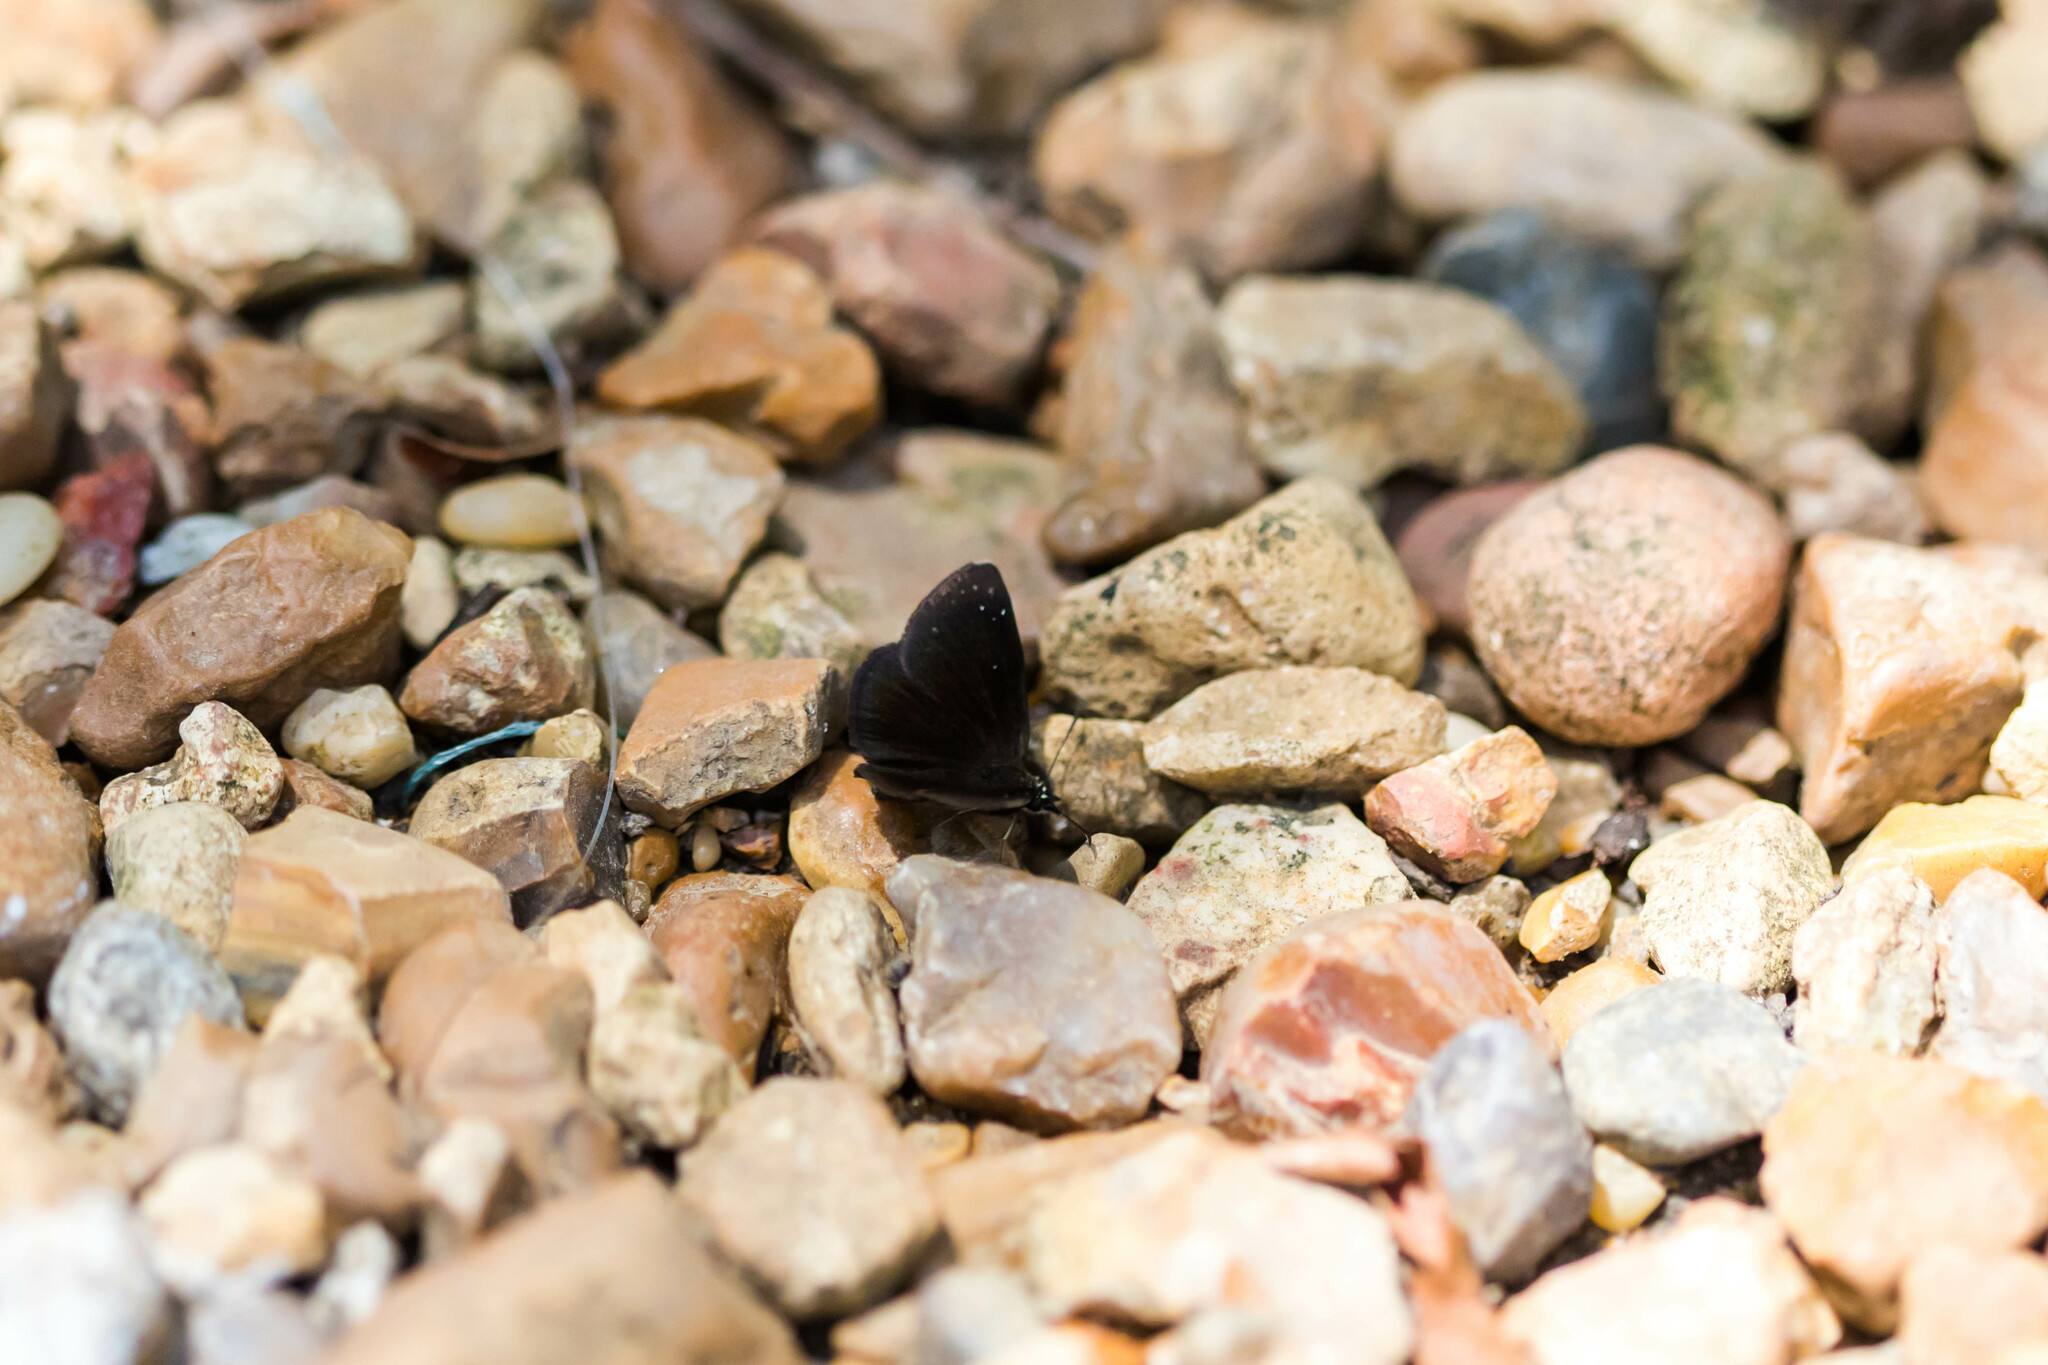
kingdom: Animalia
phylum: Arthropoda
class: Insecta
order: Lepidoptera
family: Hesperiidae
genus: Pholisora
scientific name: Pholisora catullus
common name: Common sootywing
